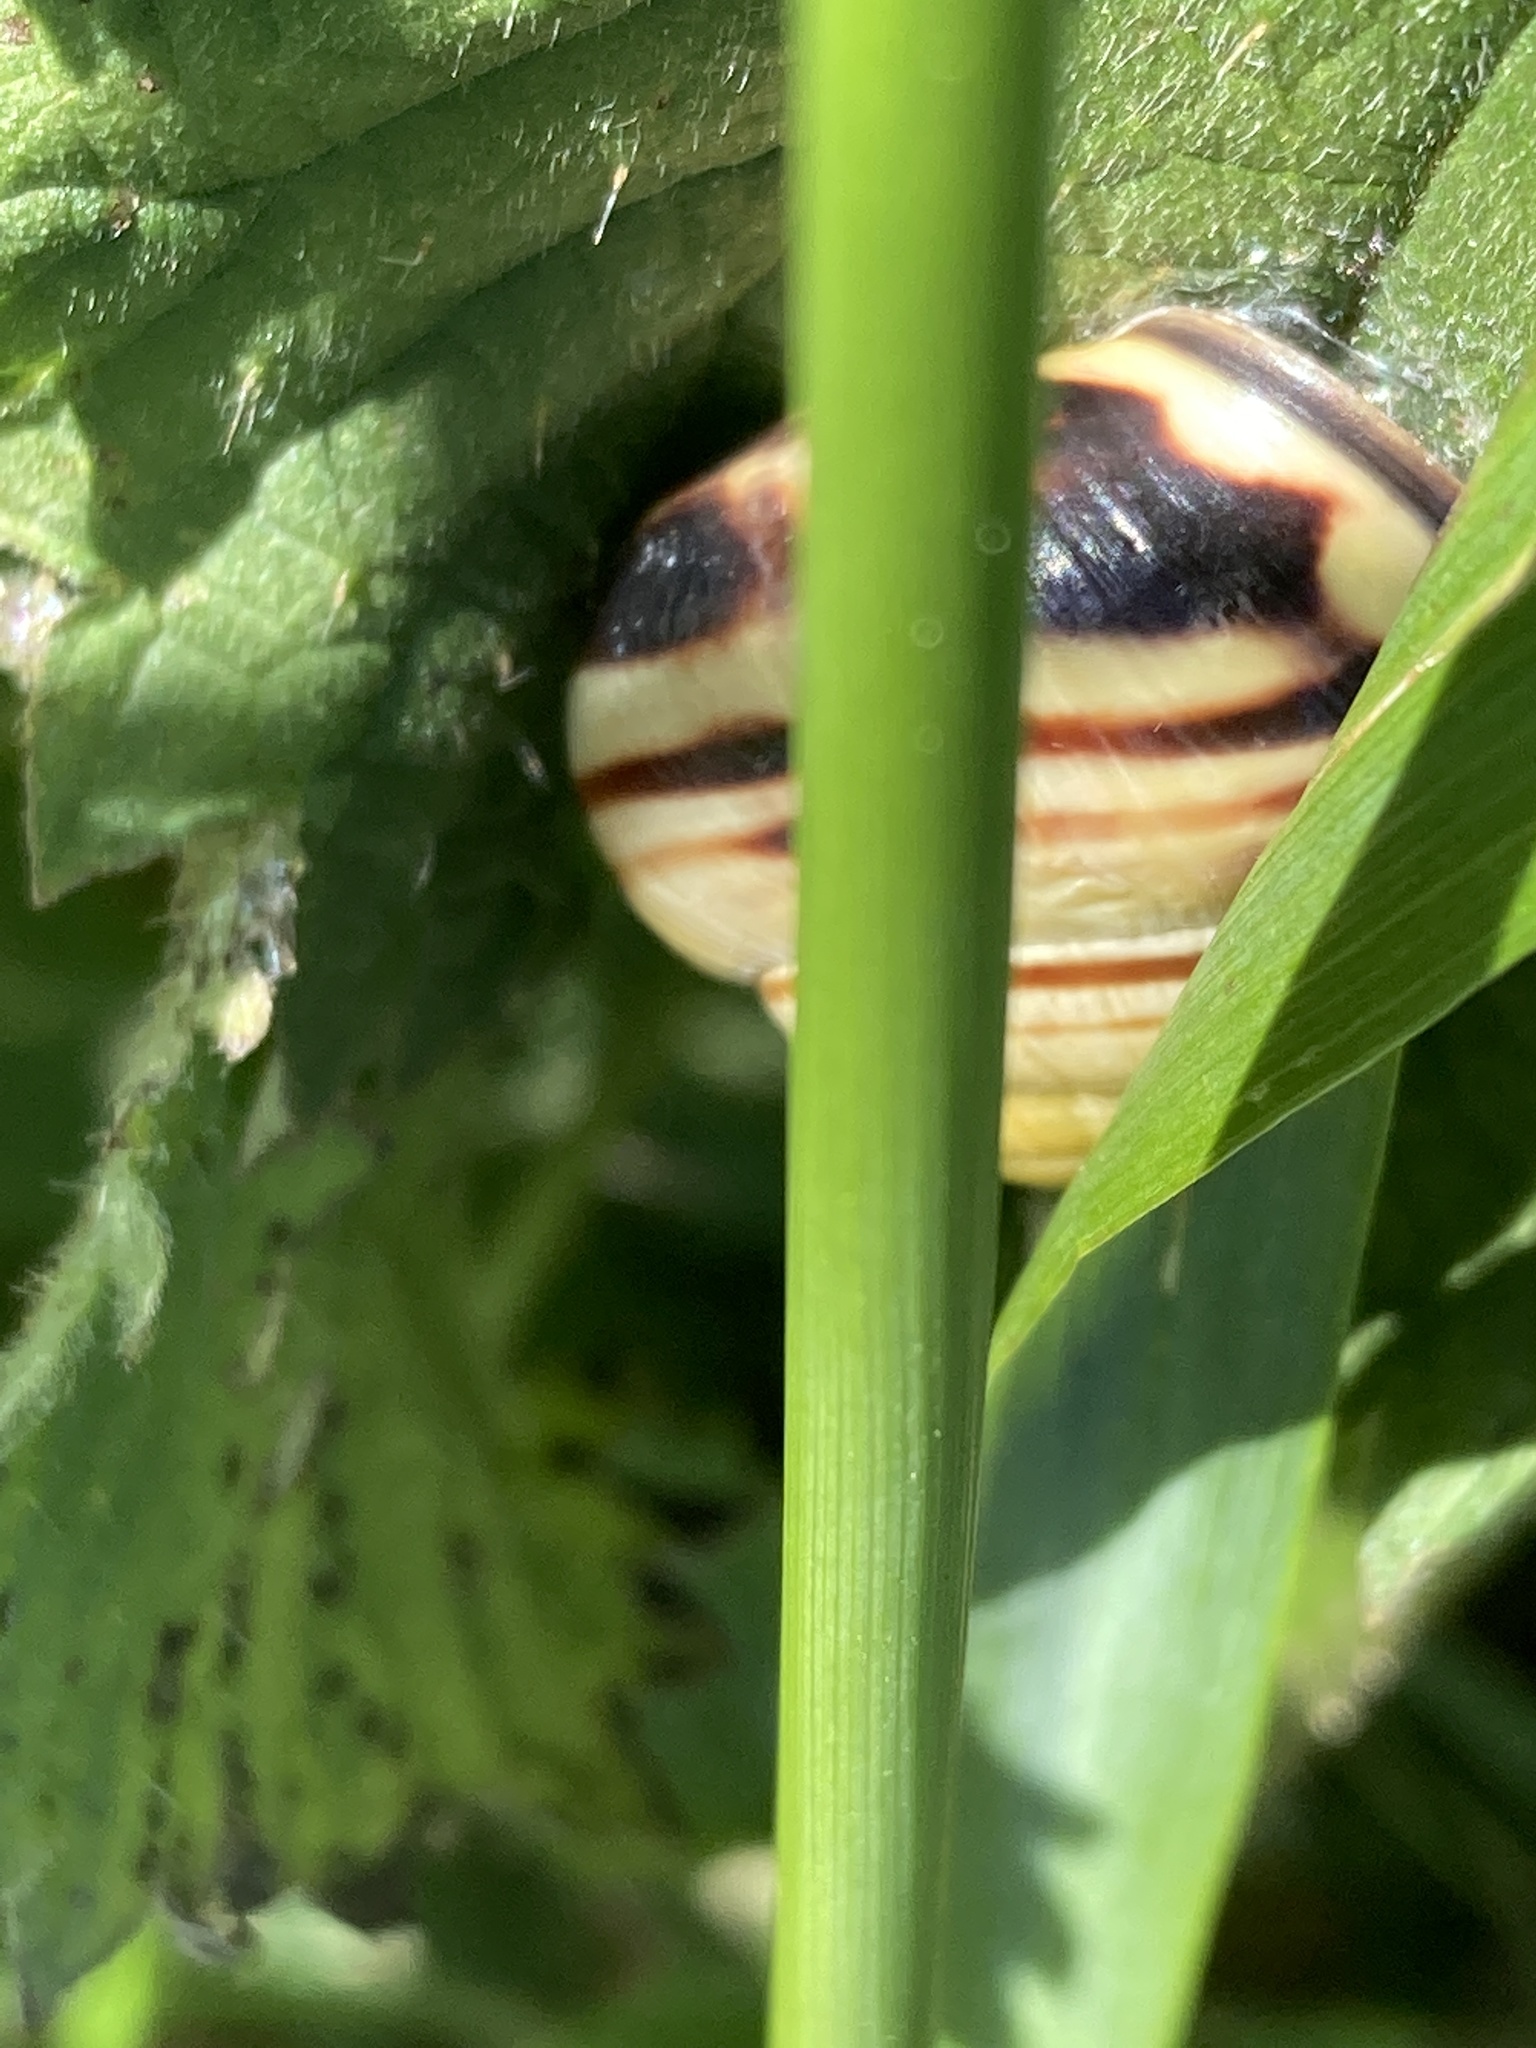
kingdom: Animalia
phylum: Mollusca
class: Gastropoda
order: Stylommatophora
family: Helicidae
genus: Cepaea
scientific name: Cepaea nemoralis
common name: Grovesnail
